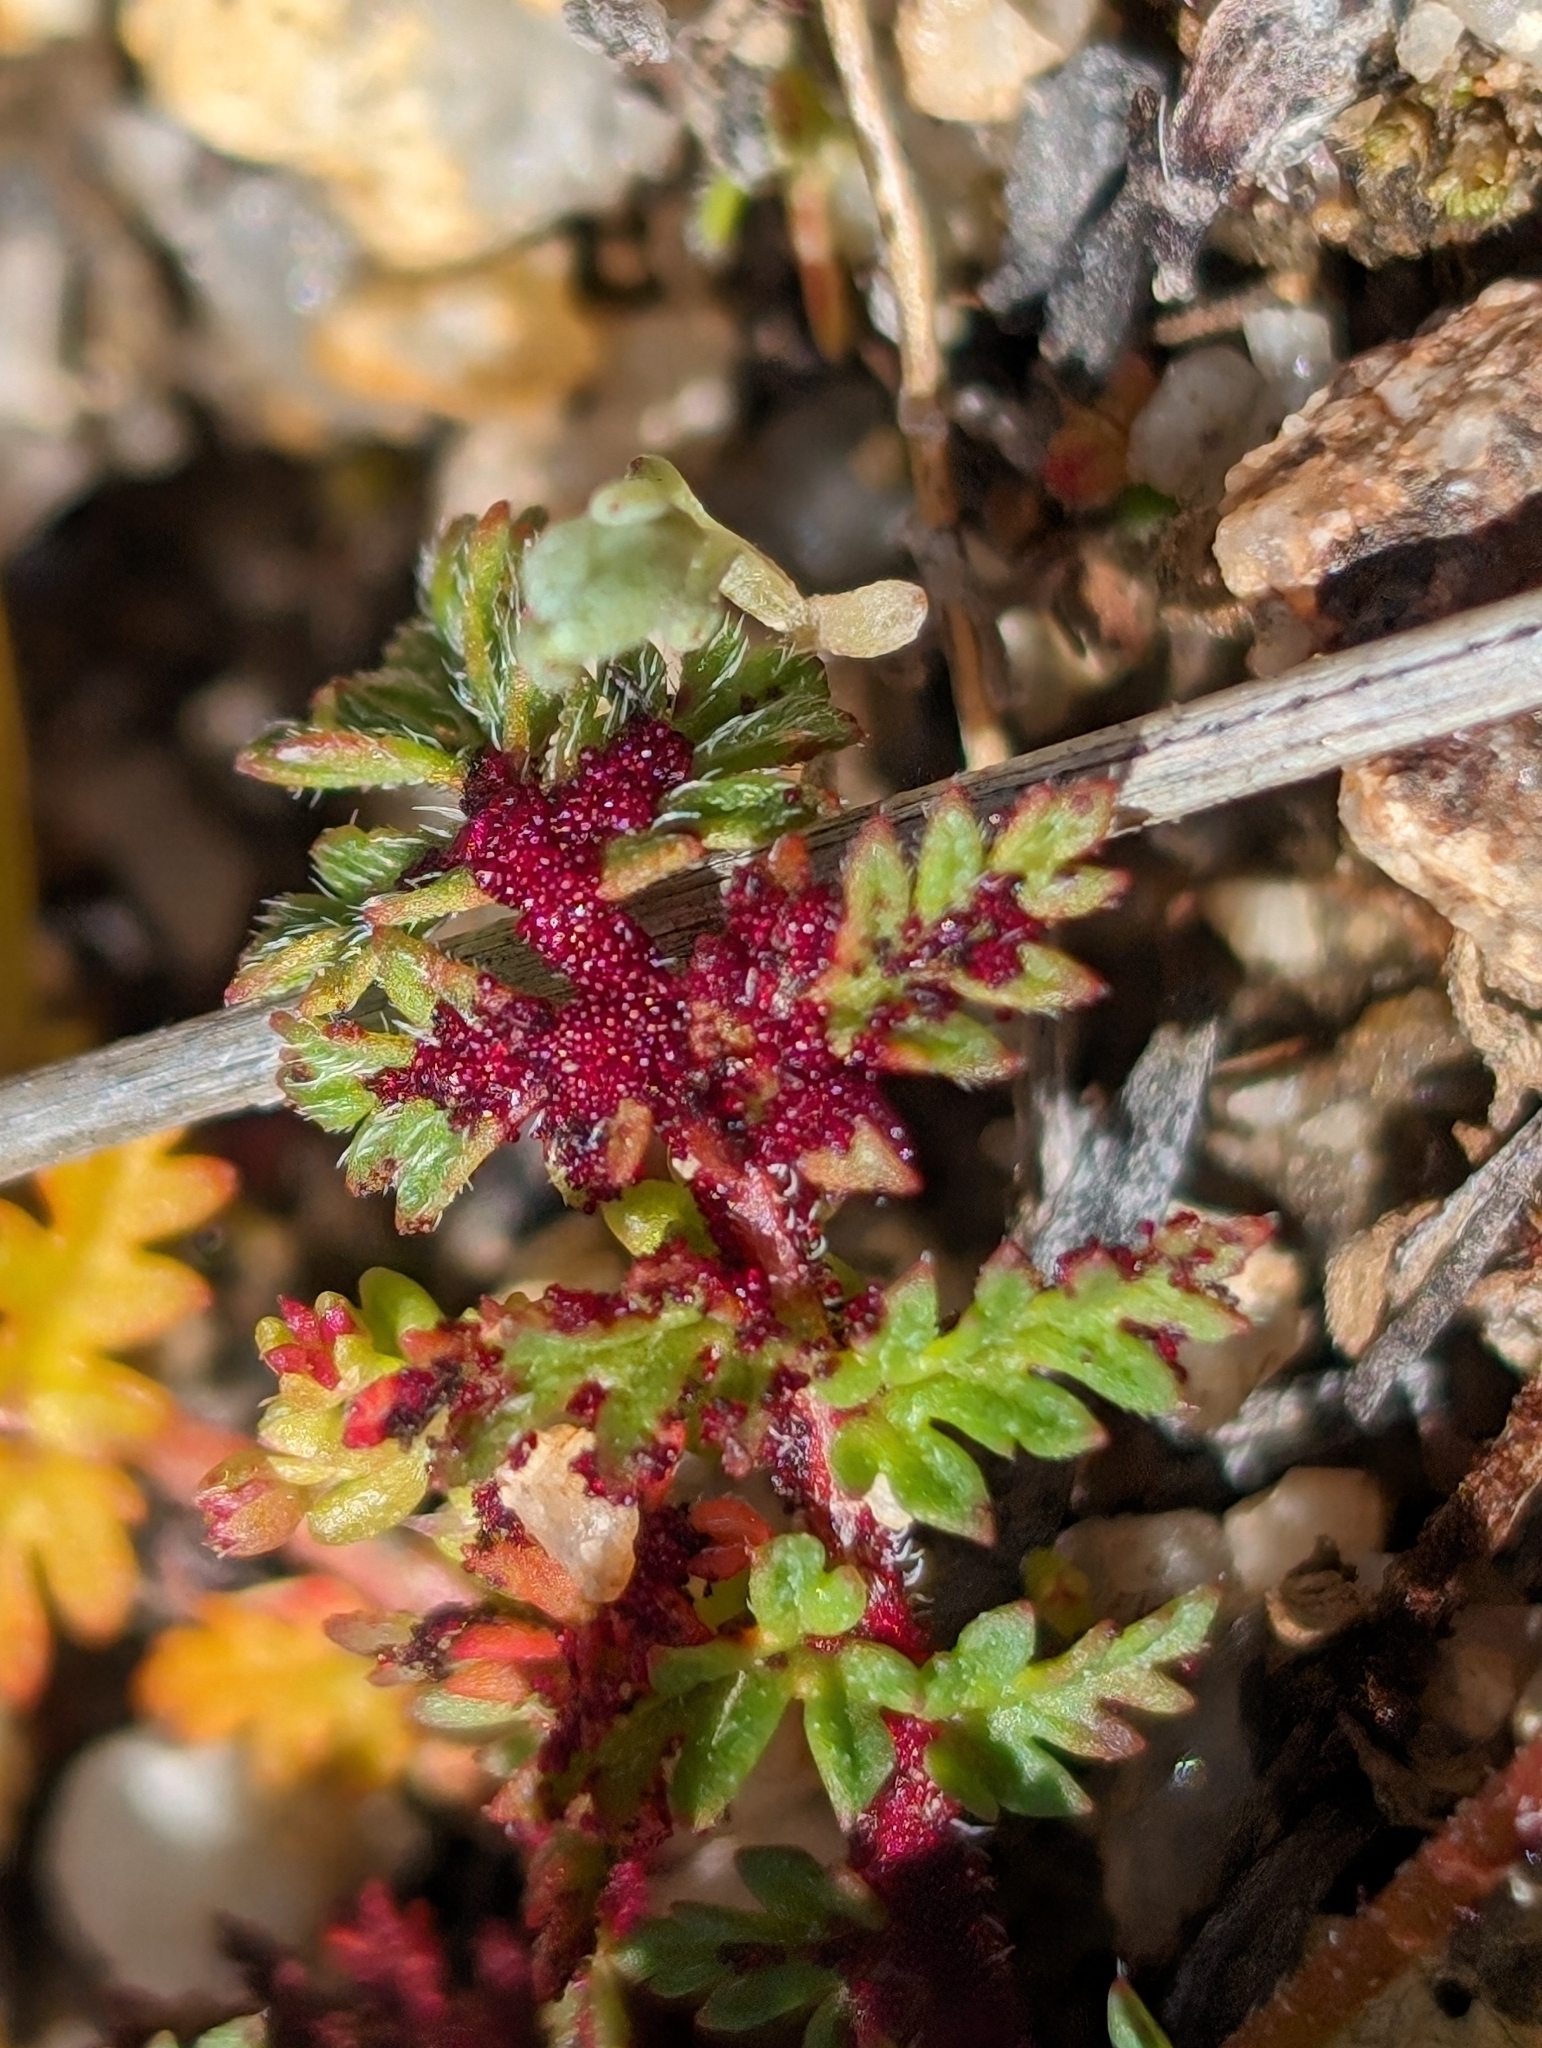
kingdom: Fungi
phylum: Chytridiomycota
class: Chytridiomycetes
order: Chytridiales
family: Synchytriaceae
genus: Synchytrium
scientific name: Synchytrium papillatum
